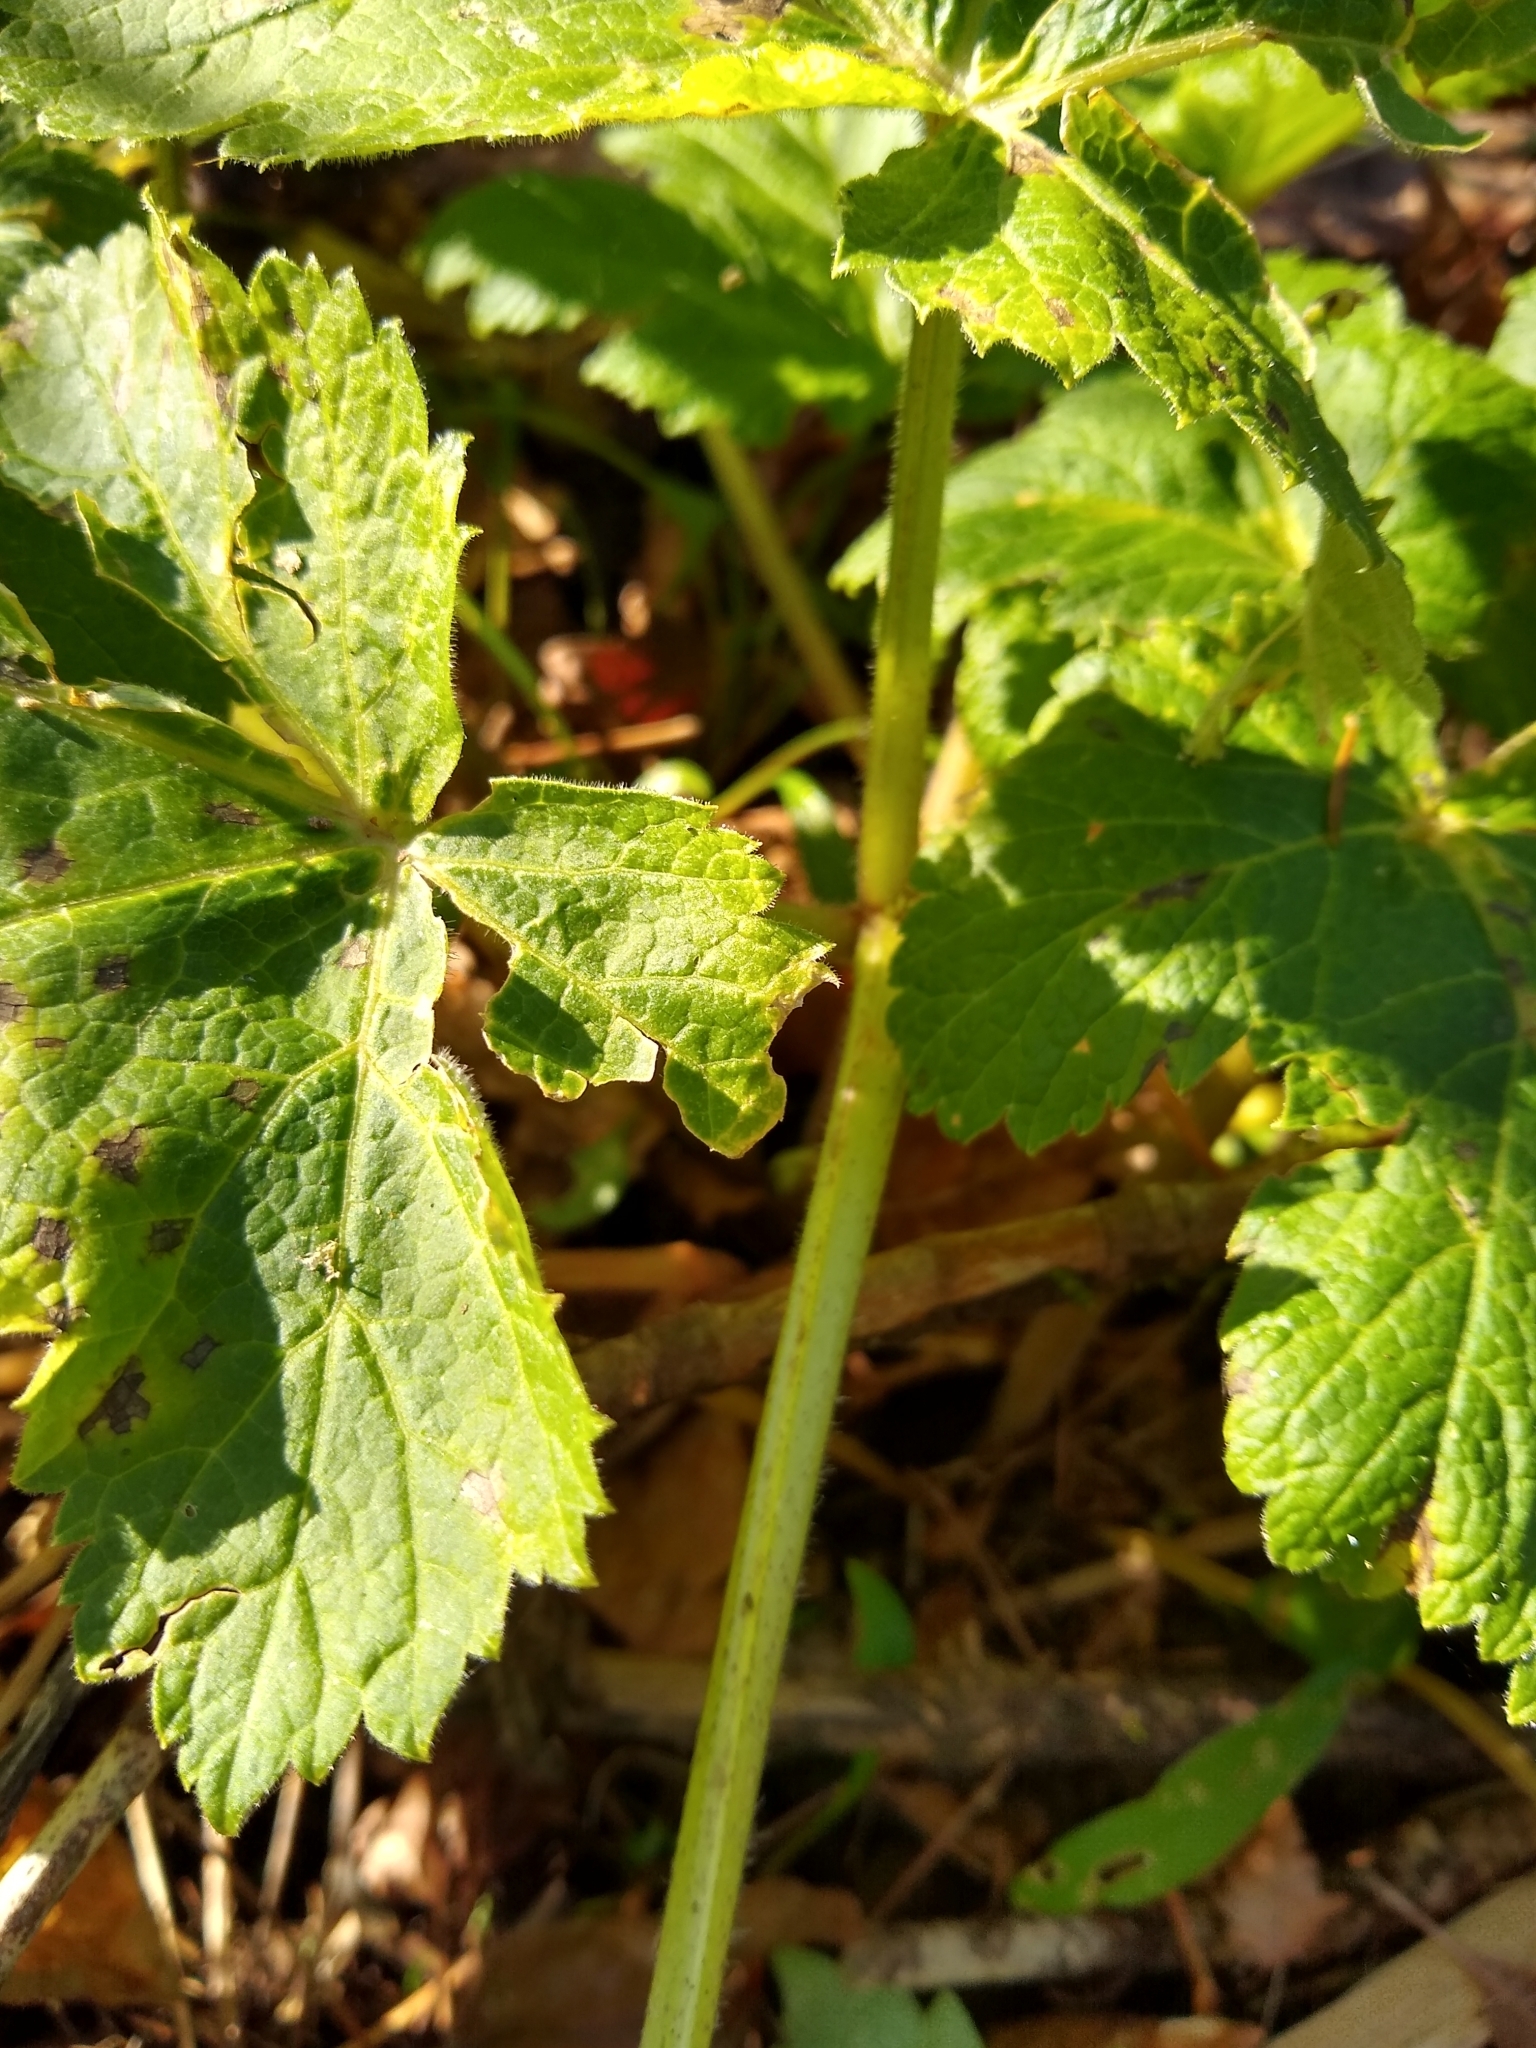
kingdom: Plantae
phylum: Tracheophyta
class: Magnoliopsida
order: Apiales
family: Apiaceae
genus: Heracleum
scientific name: Heracleum maximum
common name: American cow parsnip
